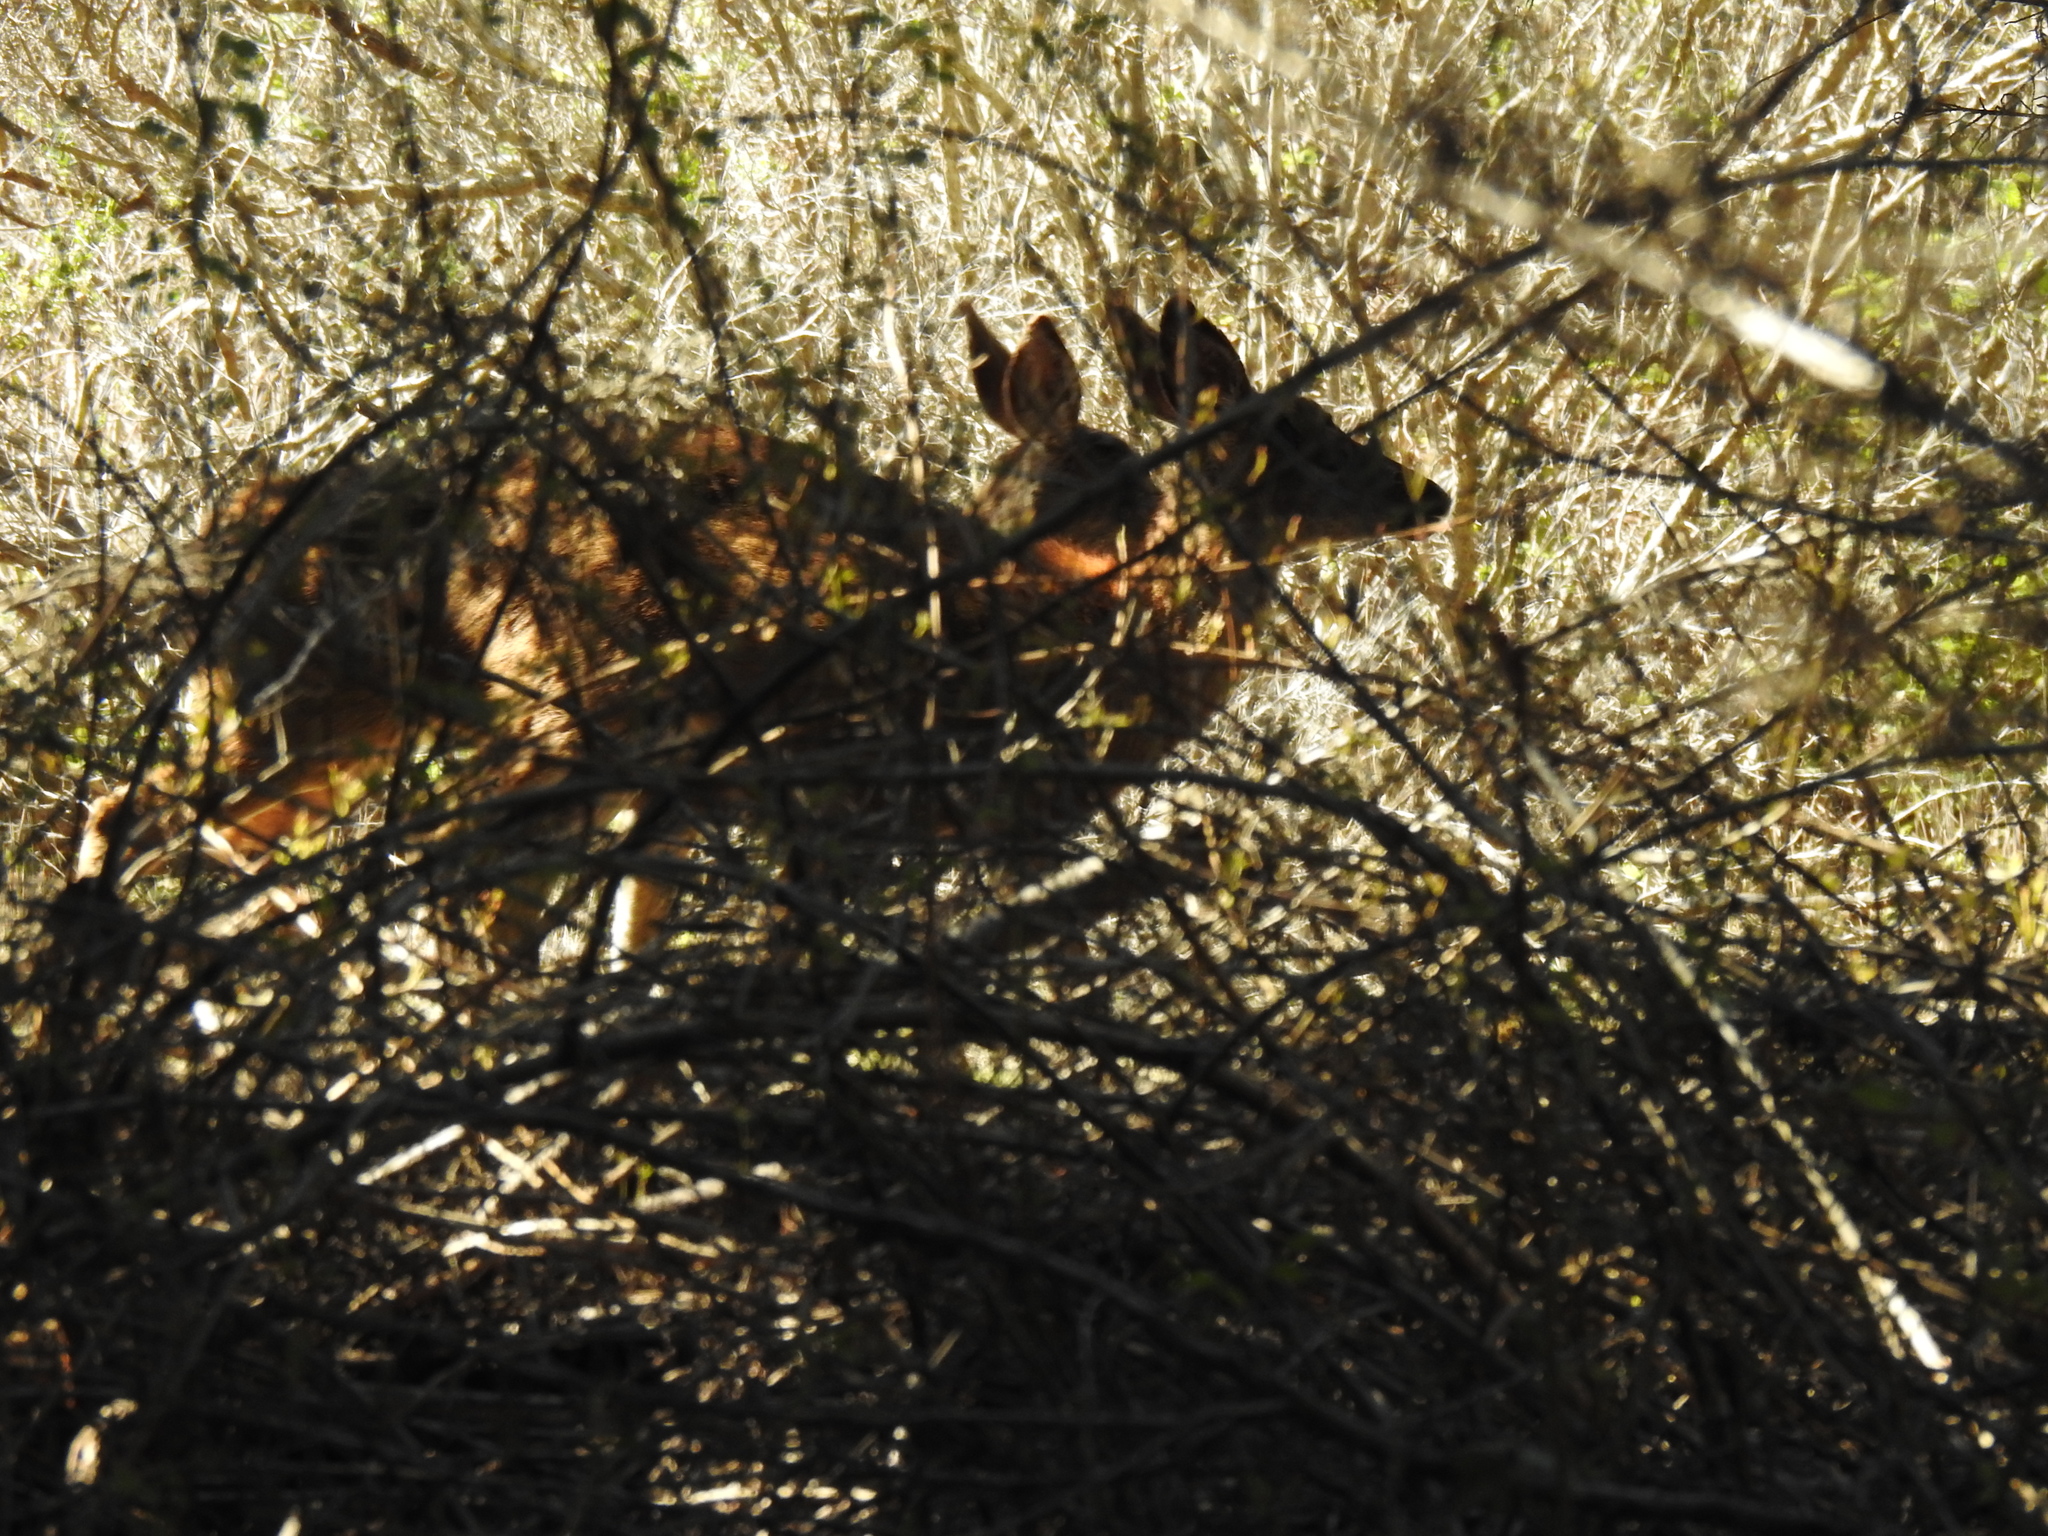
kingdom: Animalia
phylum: Chordata
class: Mammalia
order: Artiodactyla
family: Cervidae
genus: Odocoileus
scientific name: Odocoileus hemionus
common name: Mule deer
